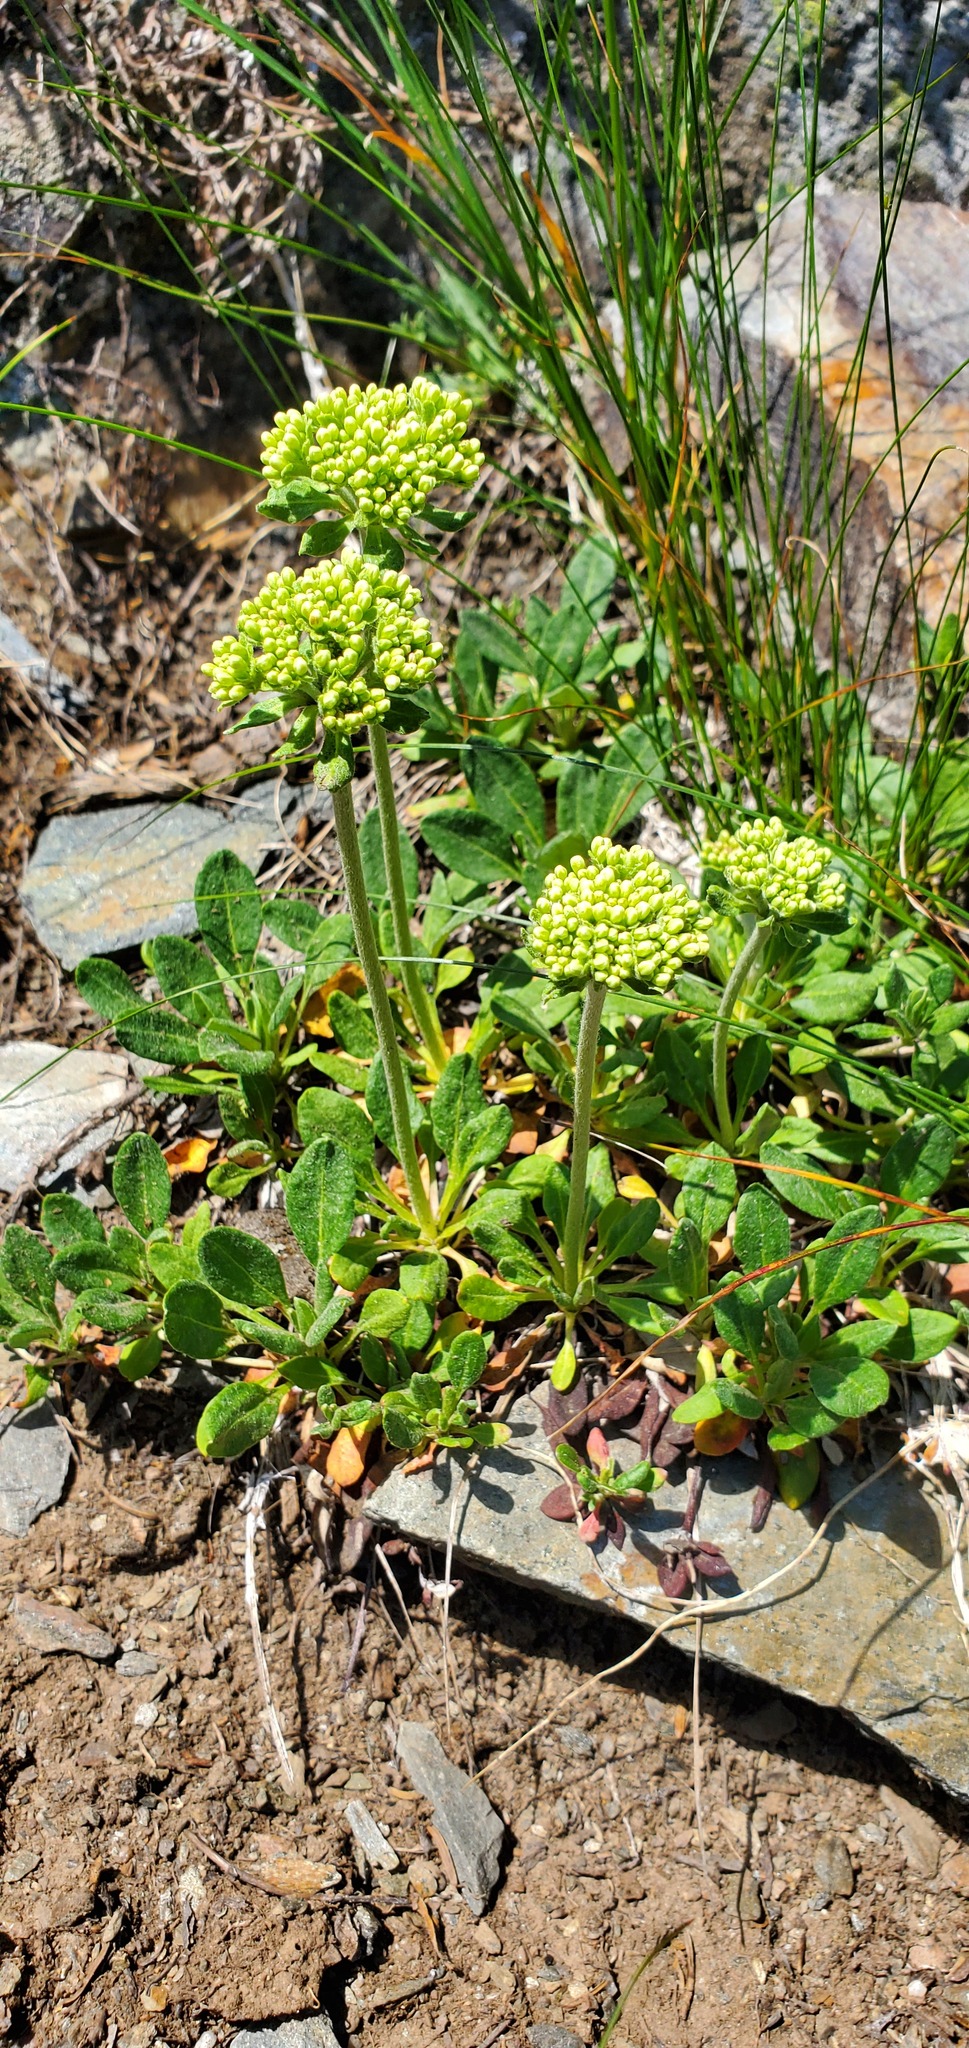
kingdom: Plantae
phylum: Tracheophyta
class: Magnoliopsida
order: Caryophyllales
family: Polygonaceae
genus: Eriogonum
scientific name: Eriogonum umbellatum
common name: Sulfur-buckwheat
